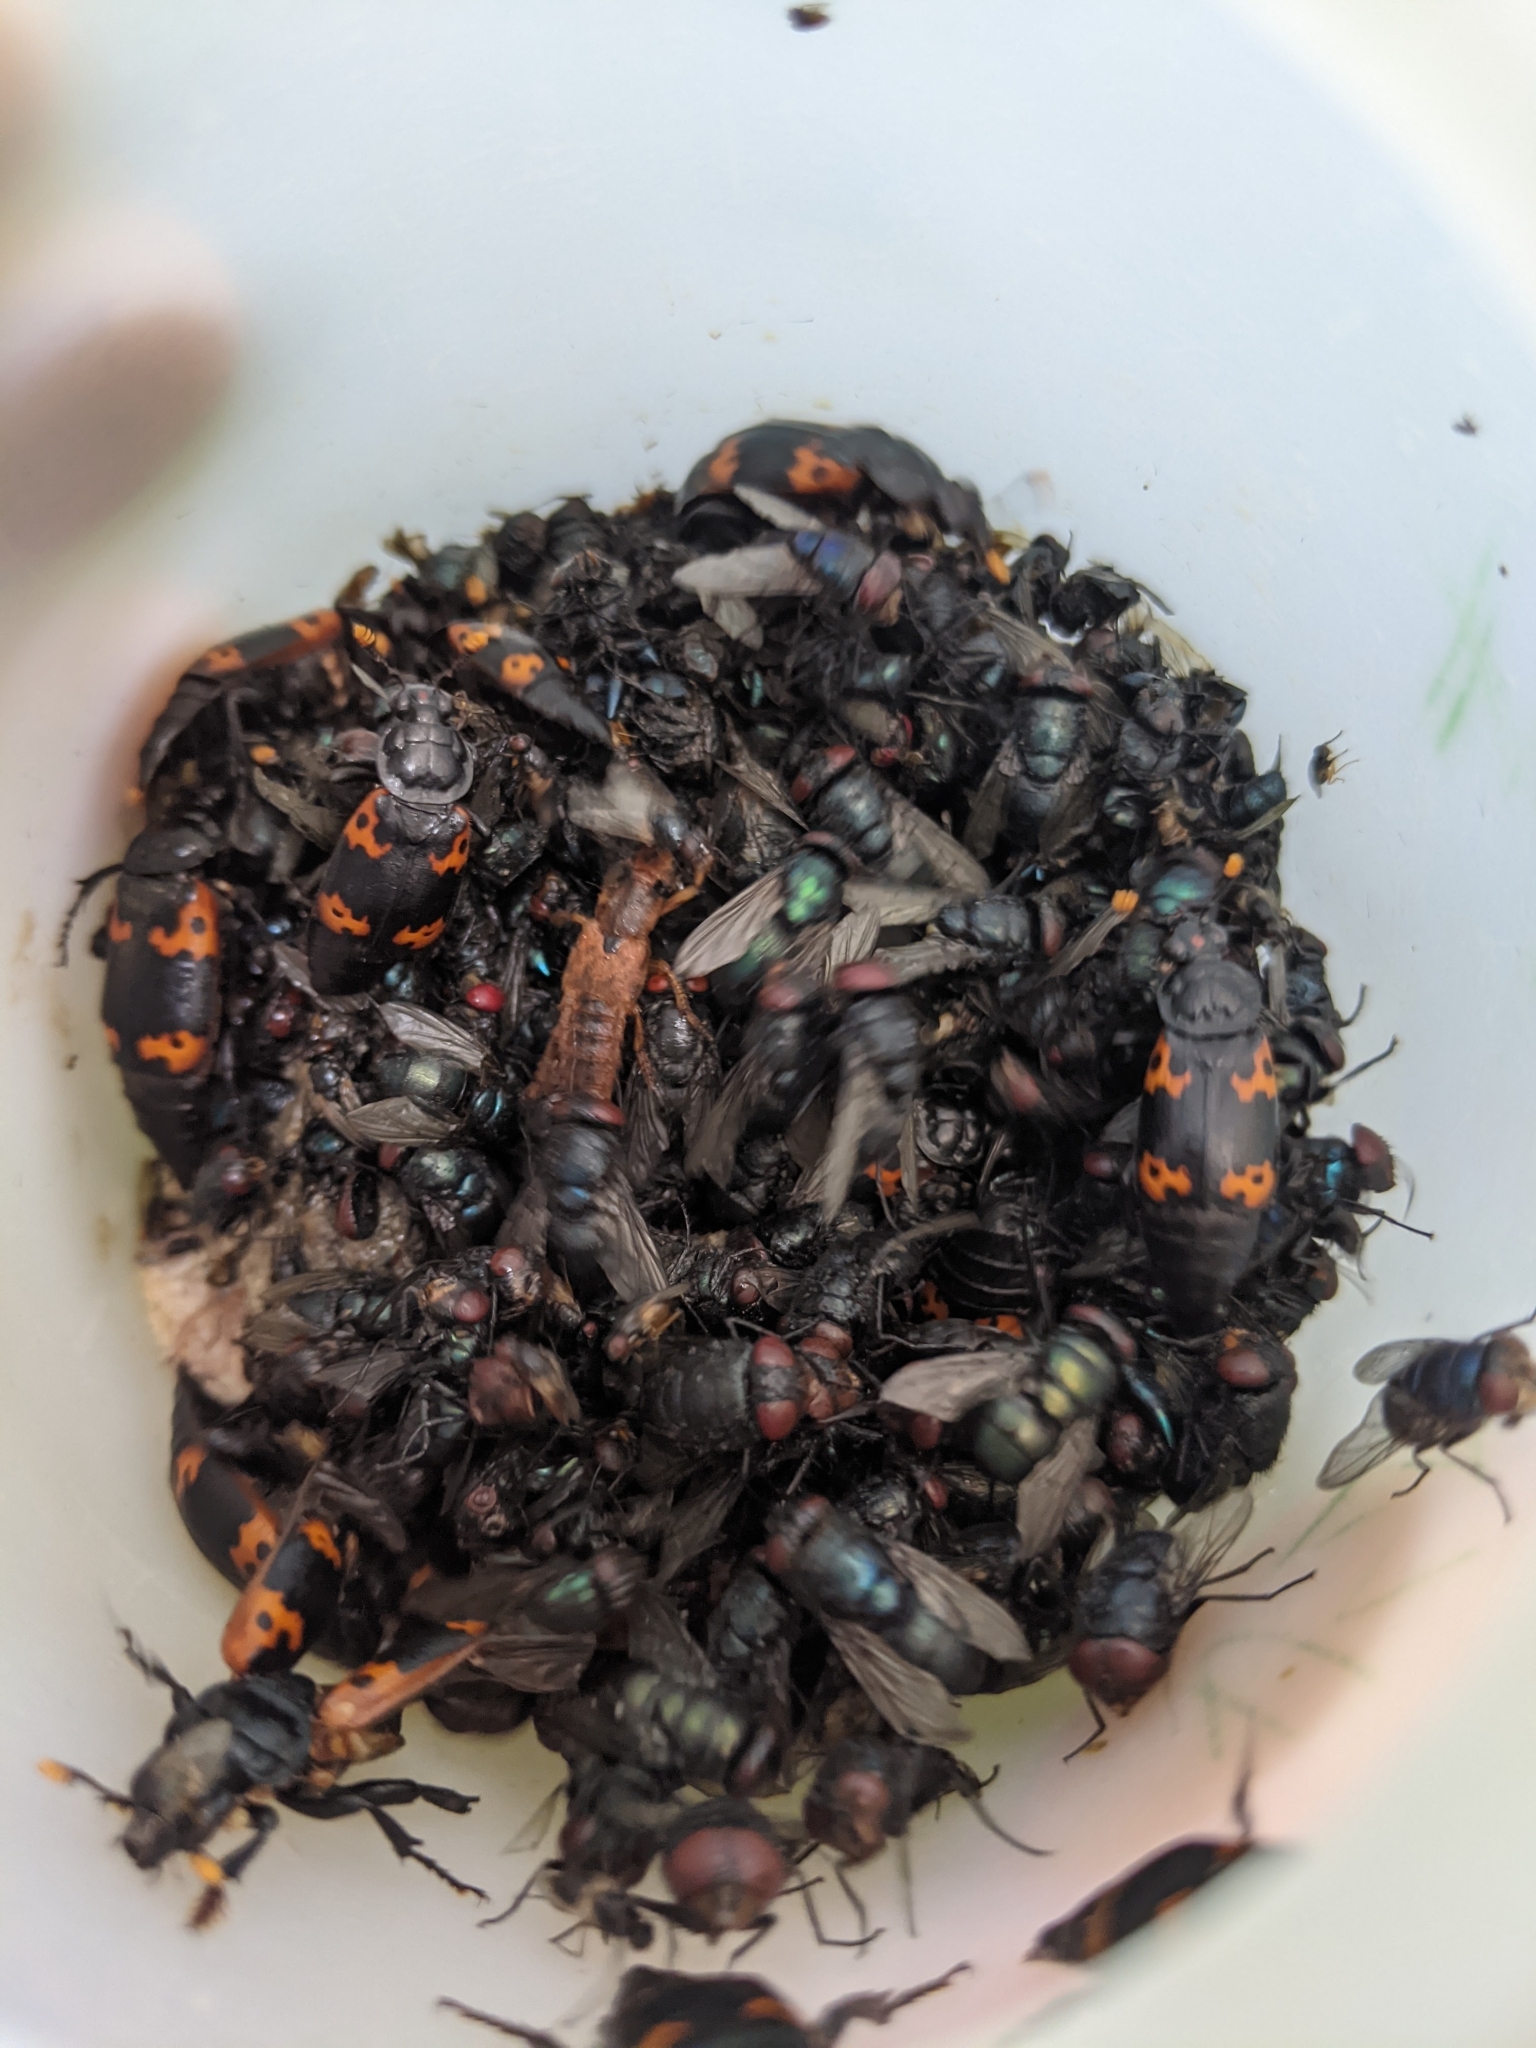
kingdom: Animalia
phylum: Arthropoda
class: Insecta
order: Coleoptera
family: Staphylinidae
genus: Nicrophorus
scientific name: Nicrophorus nepalensis
